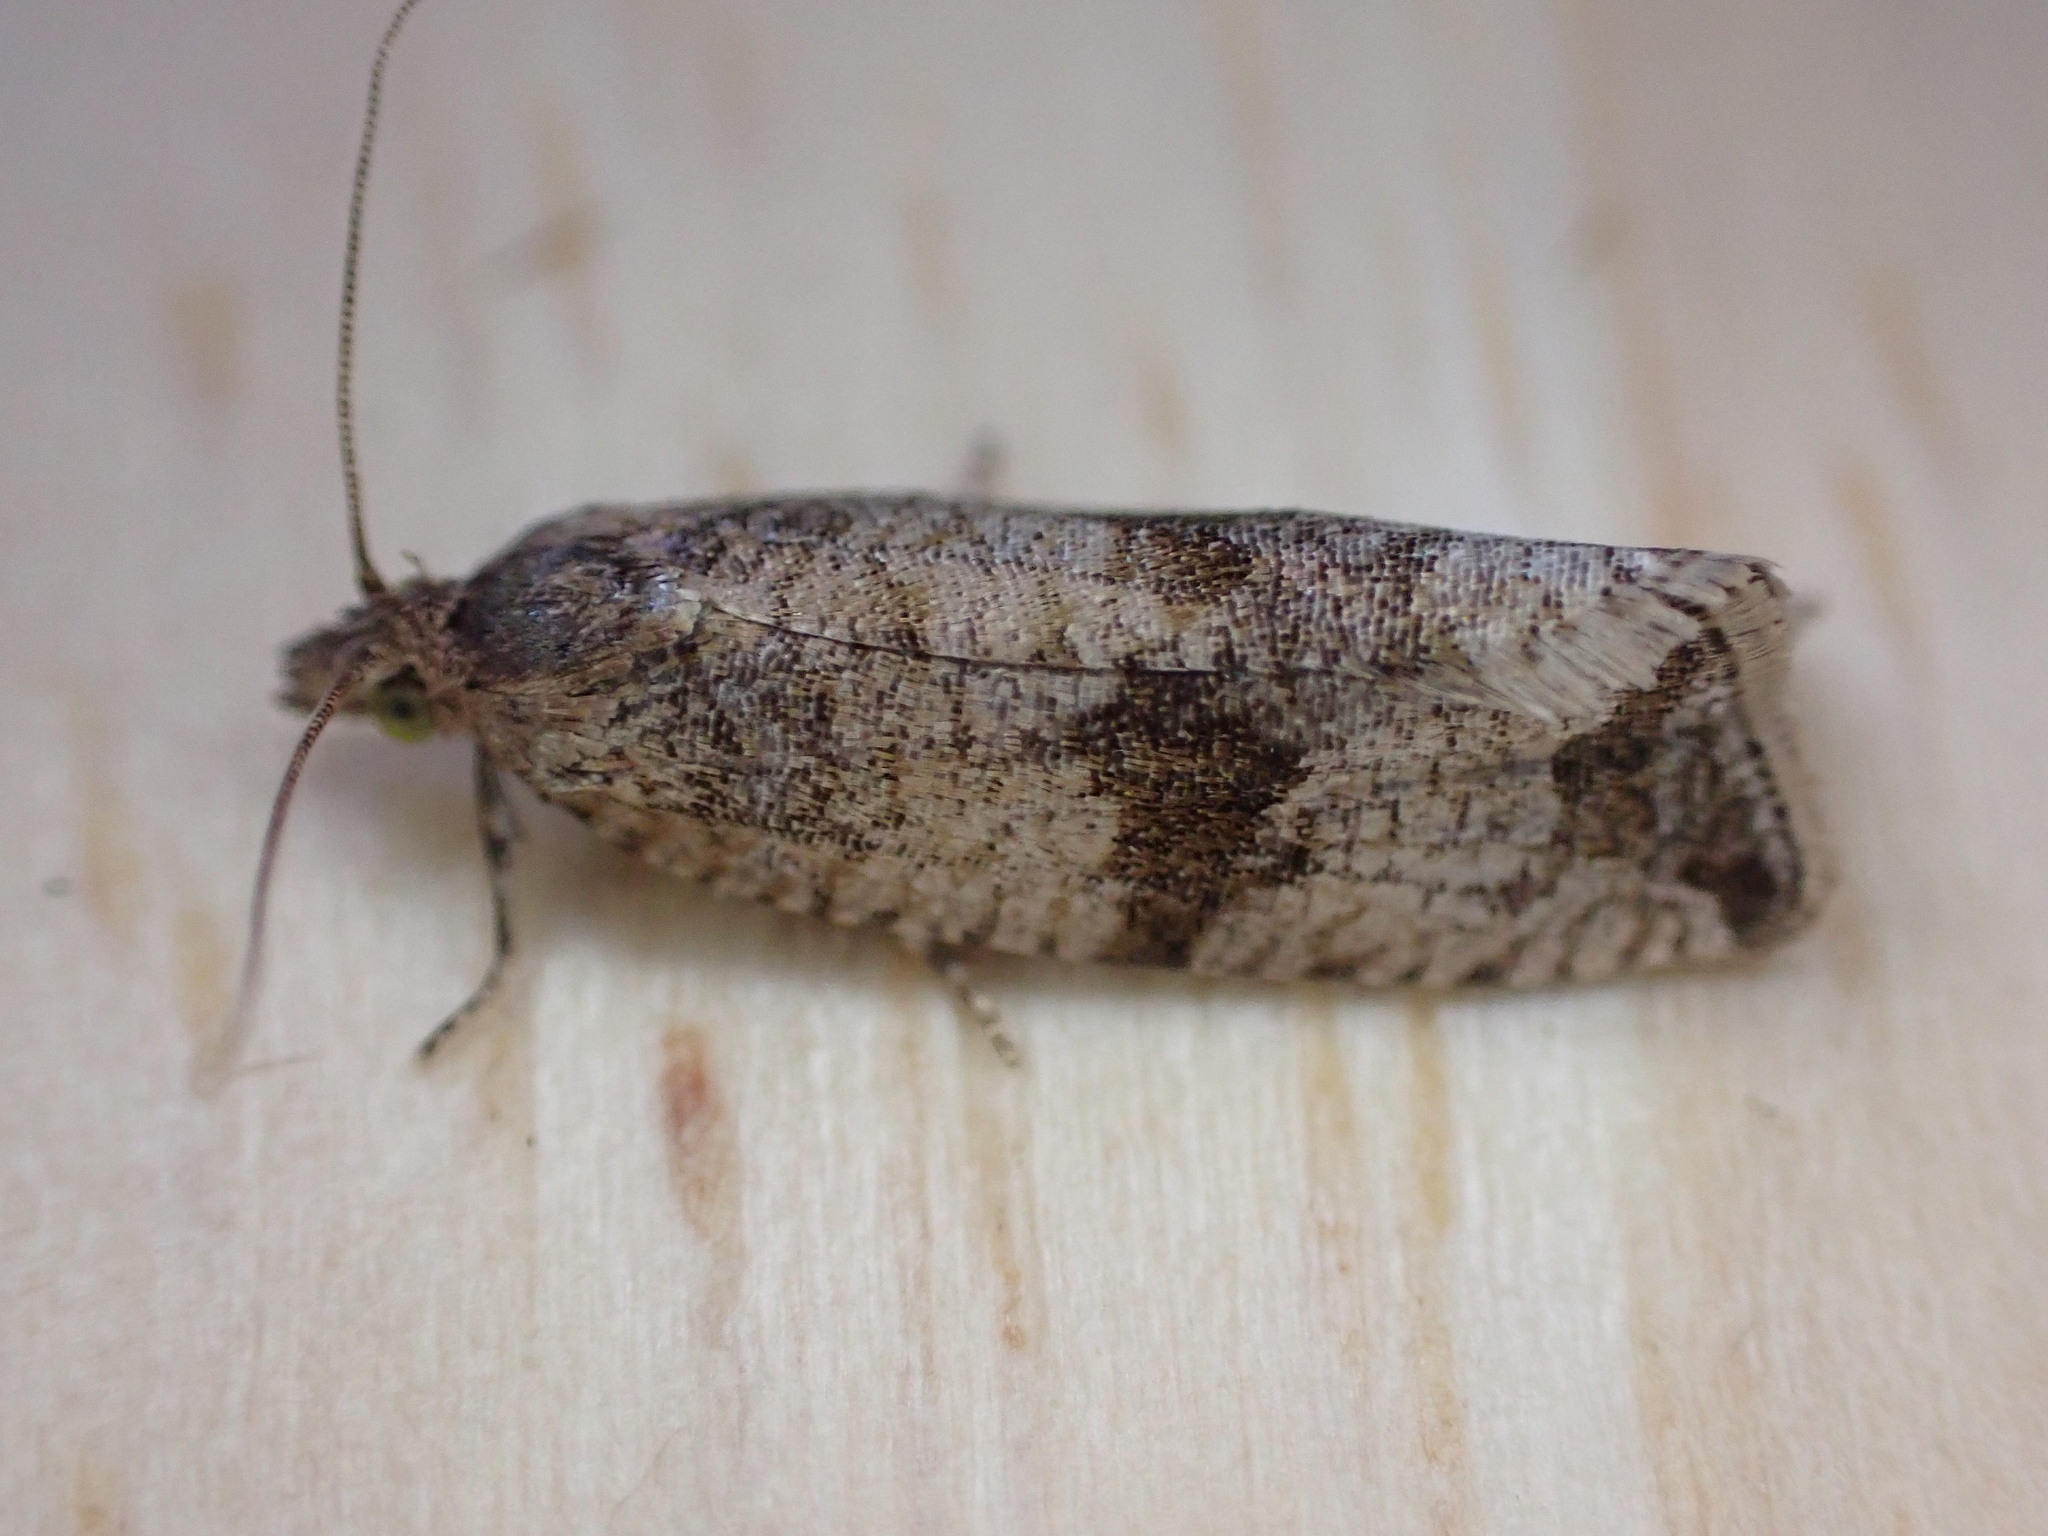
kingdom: Animalia
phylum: Arthropoda
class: Insecta
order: Lepidoptera
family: Tortricidae
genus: Celypha
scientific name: Celypha striana
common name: Barred marble
